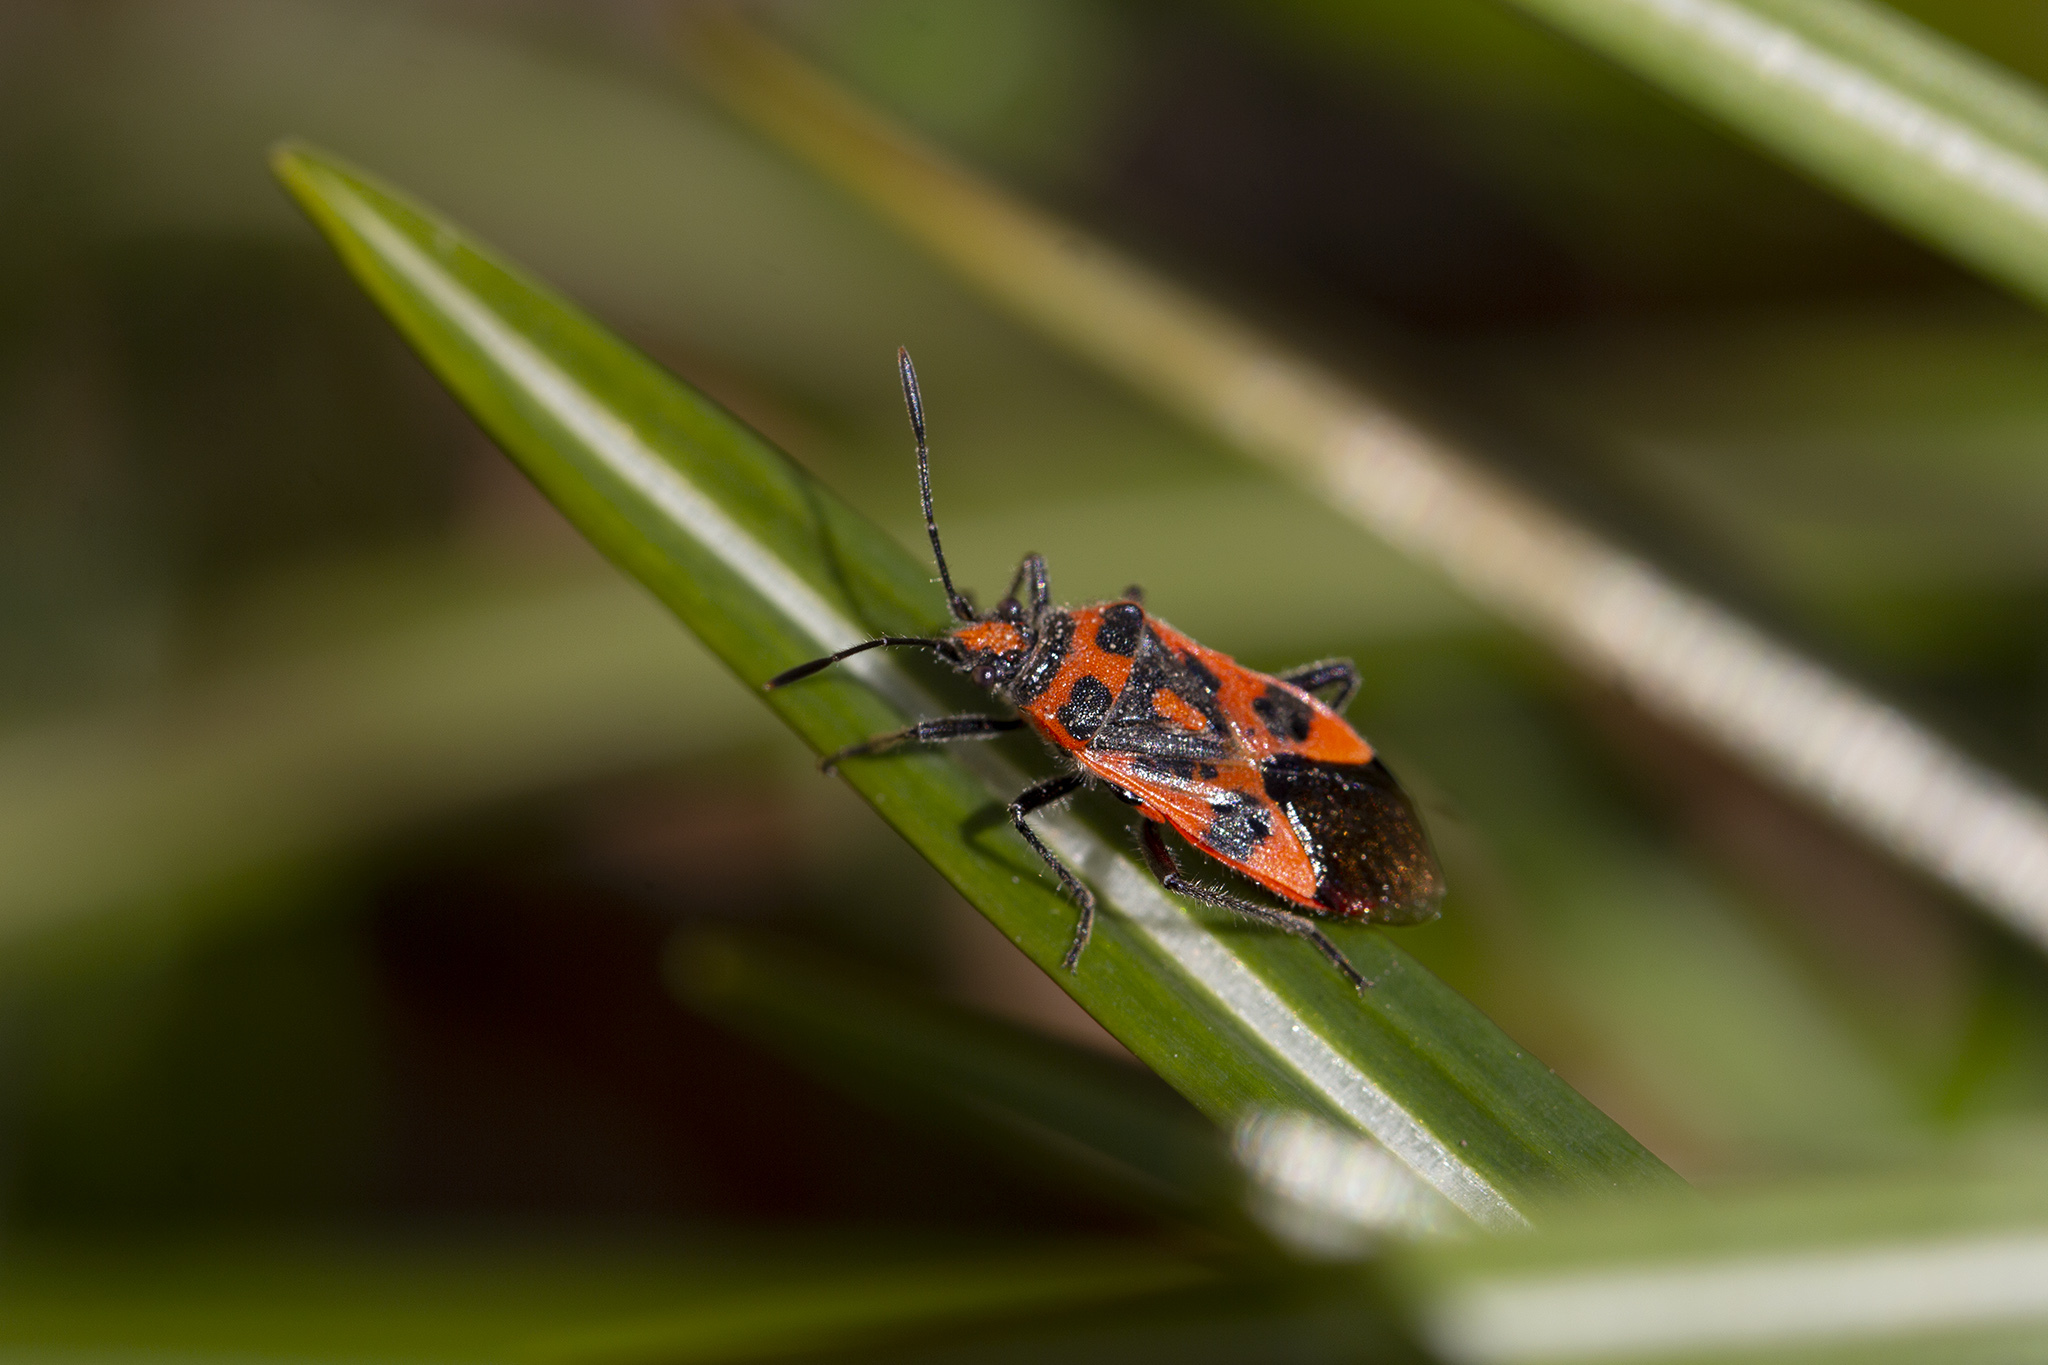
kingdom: Animalia
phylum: Arthropoda
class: Insecta
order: Hemiptera
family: Rhopalidae
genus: Corizus
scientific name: Corizus hyoscyami
